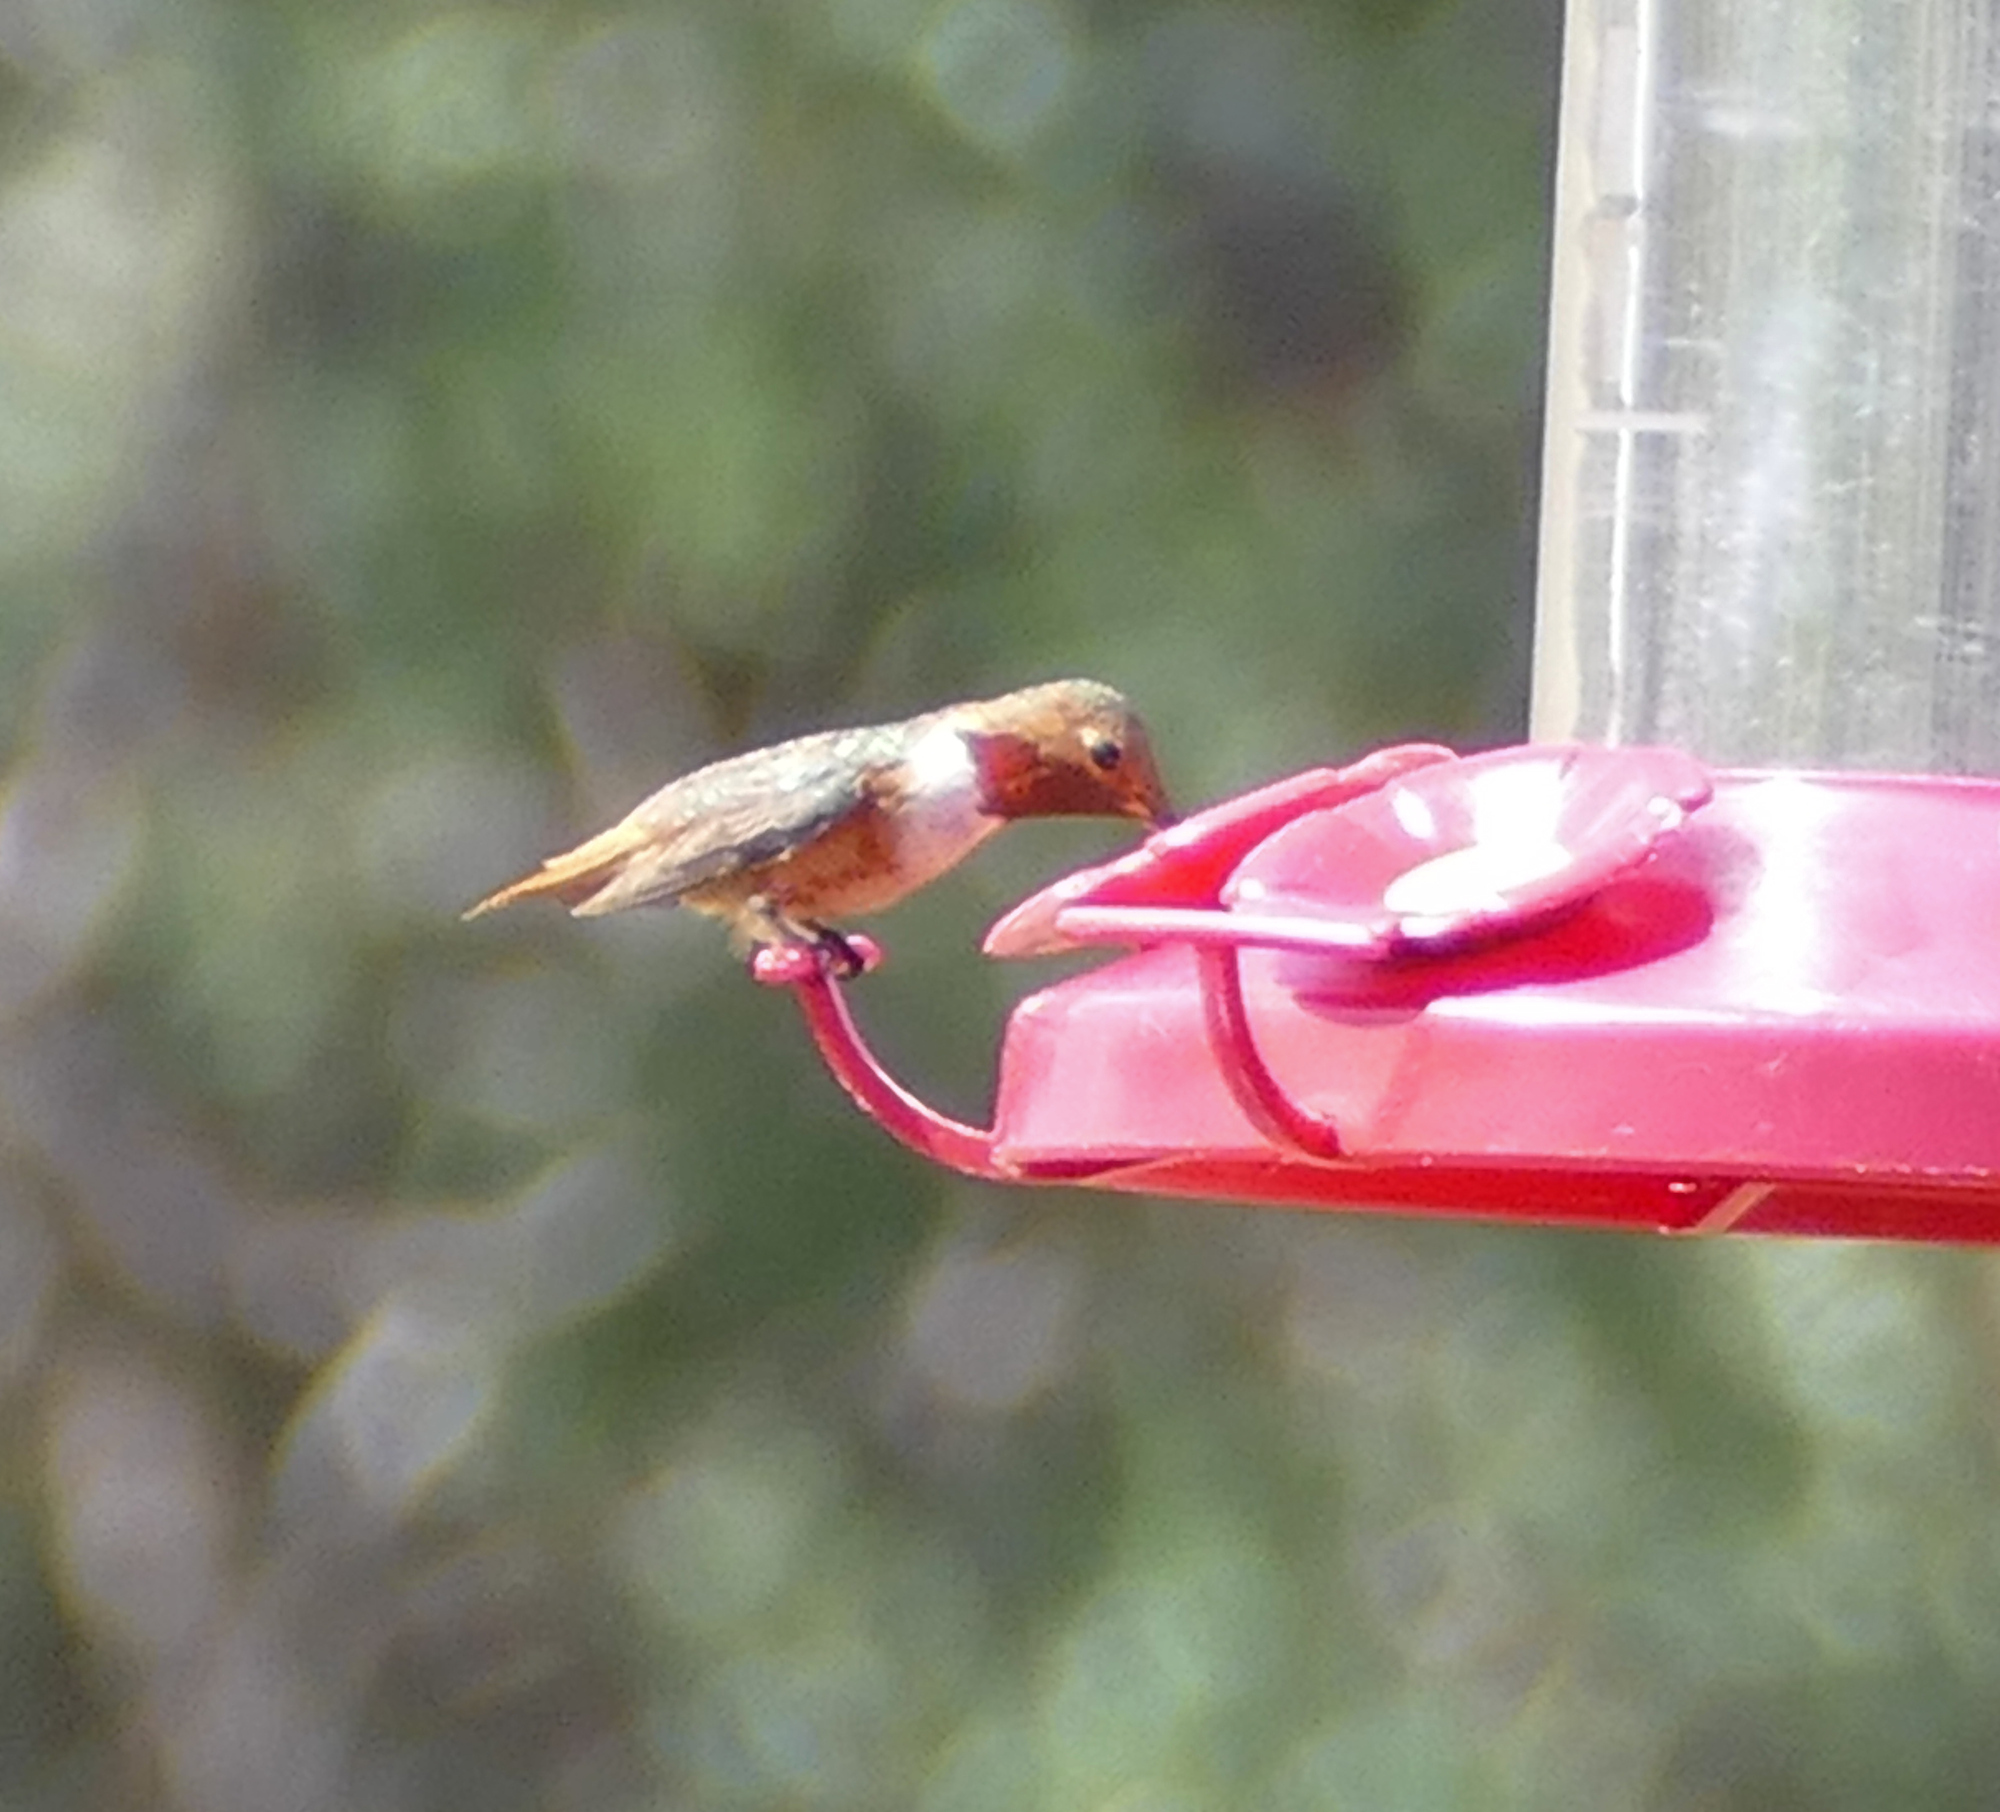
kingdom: Animalia
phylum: Chordata
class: Aves
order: Apodiformes
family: Trochilidae
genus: Selasphorus
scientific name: Selasphorus sasin
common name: Allen's hummingbird
